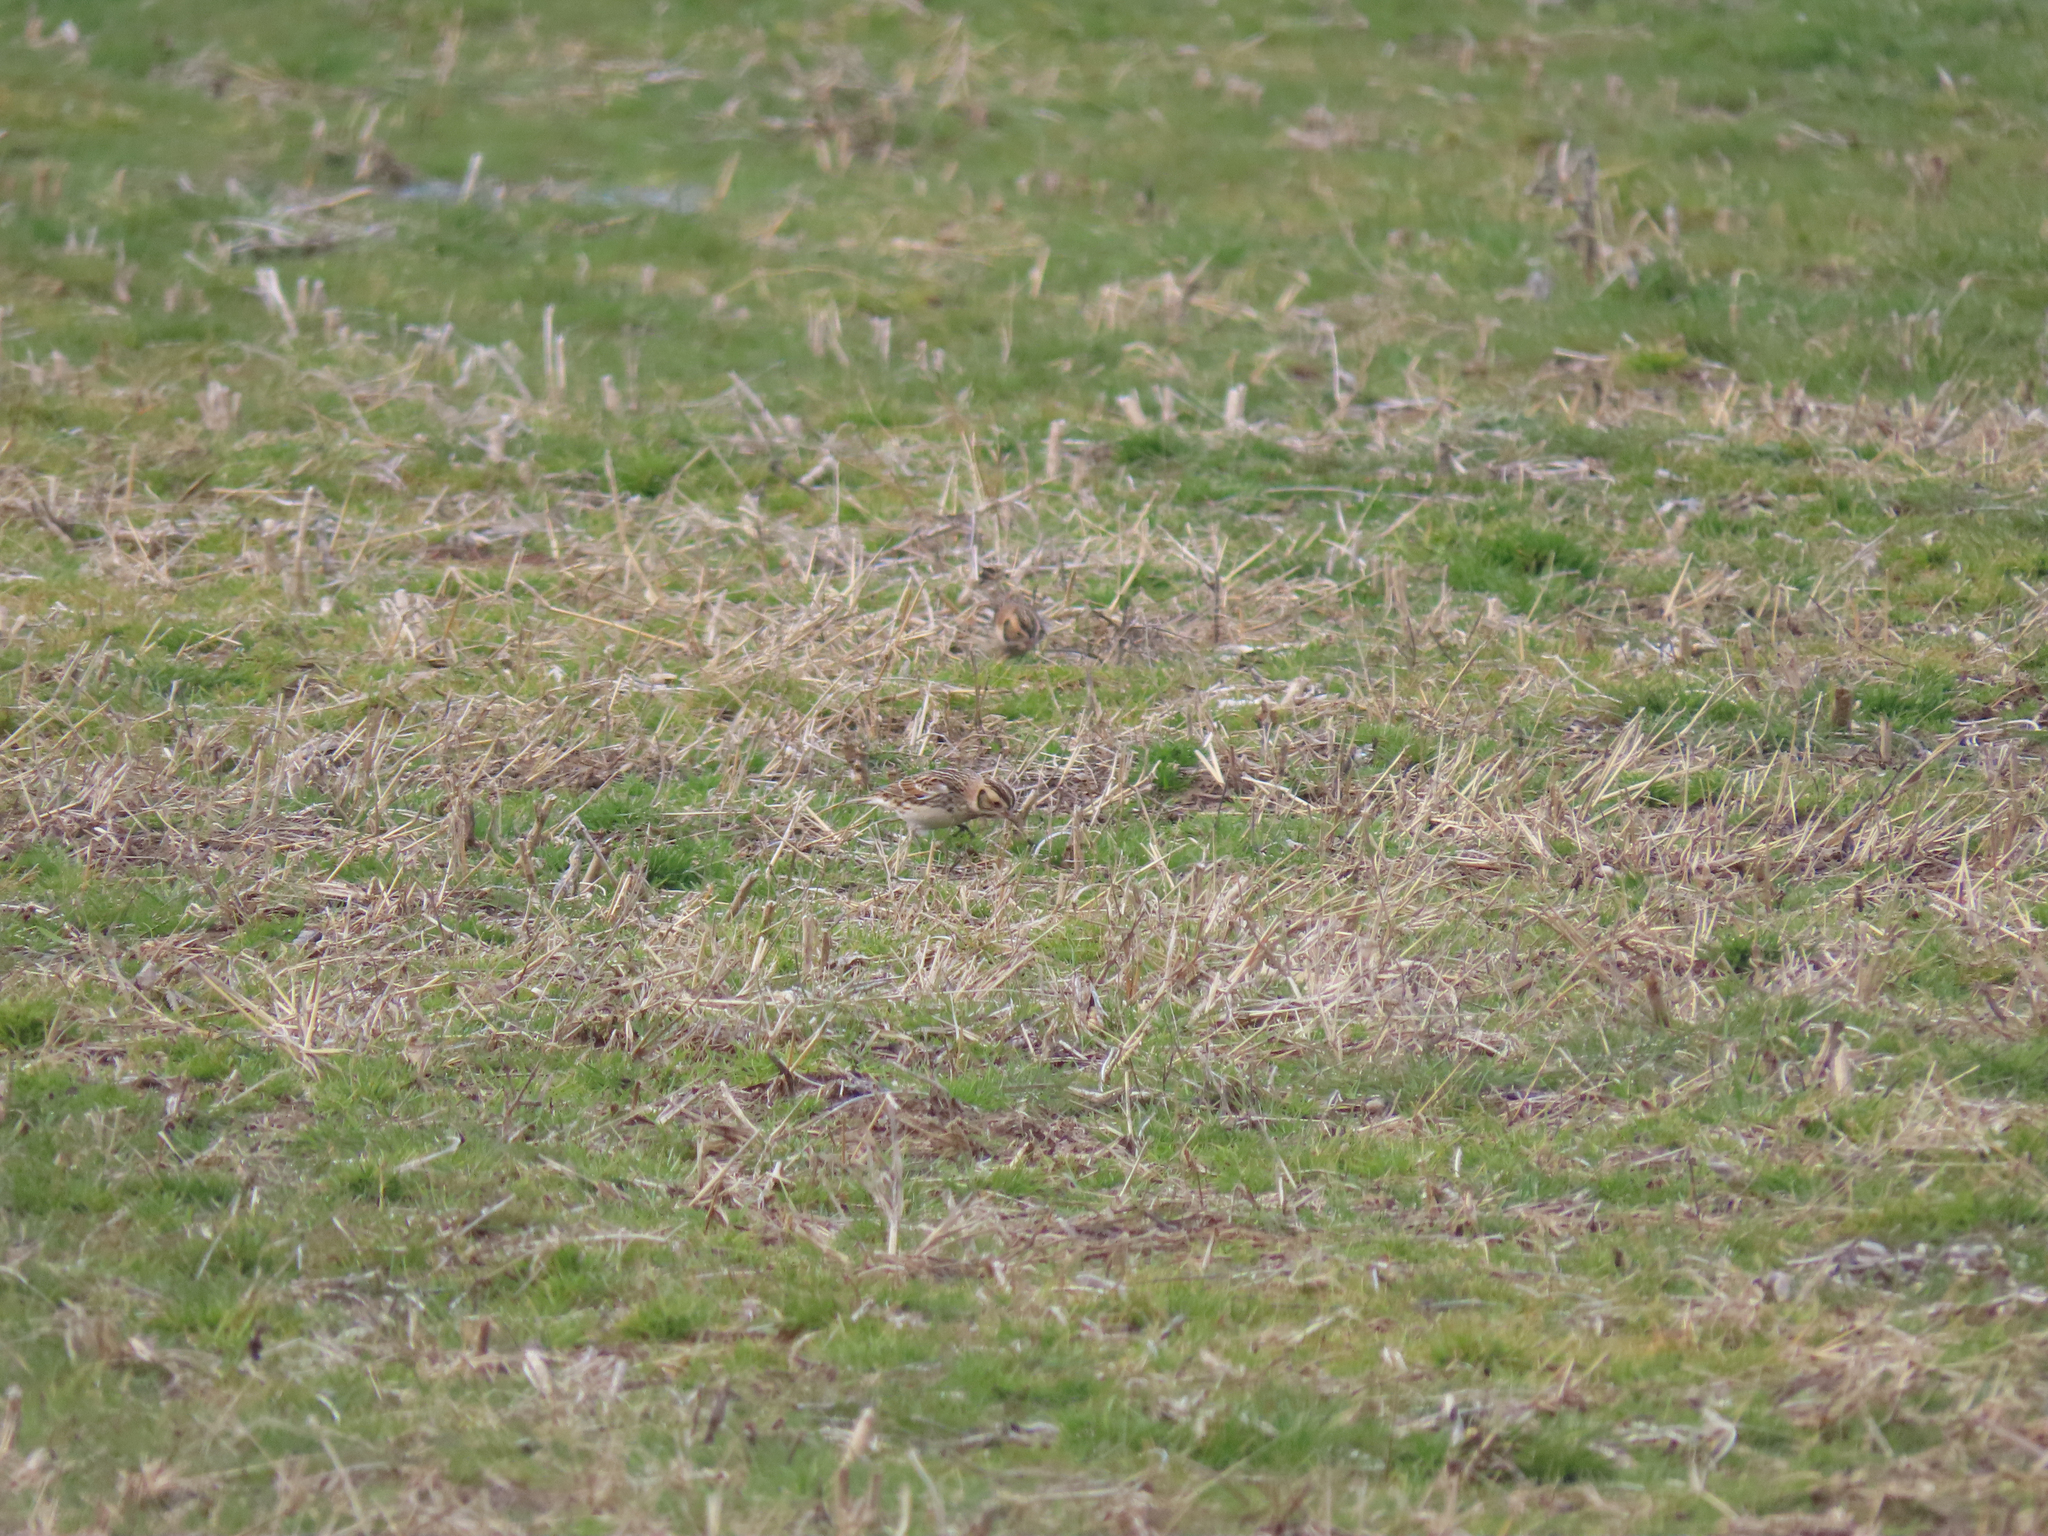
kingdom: Animalia
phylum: Chordata
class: Aves
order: Passeriformes
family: Calcariidae
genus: Calcarius
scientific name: Calcarius lapponicus
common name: Lapland longspur
